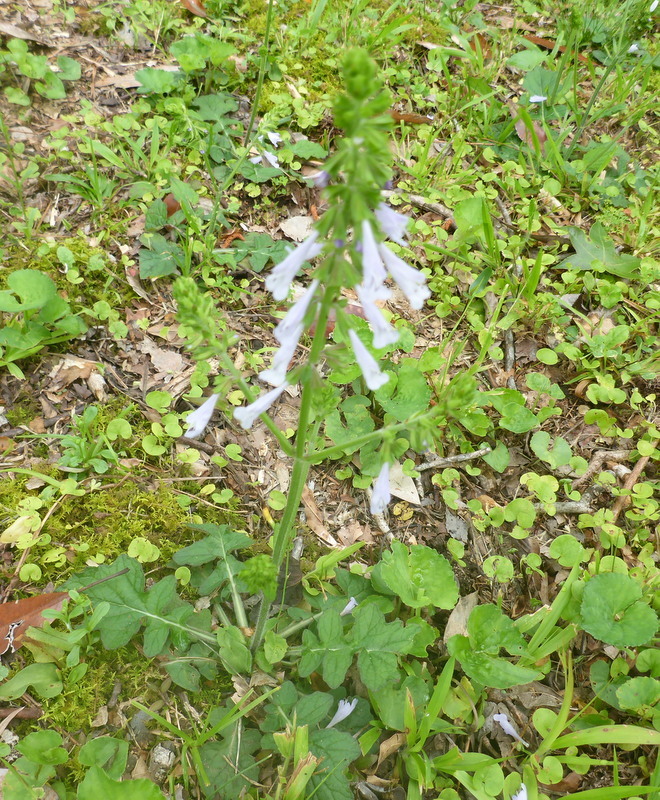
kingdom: Plantae
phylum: Tracheophyta
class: Magnoliopsida
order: Lamiales
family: Lamiaceae
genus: Salvia
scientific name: Salvia lyrata
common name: Cancerweed
